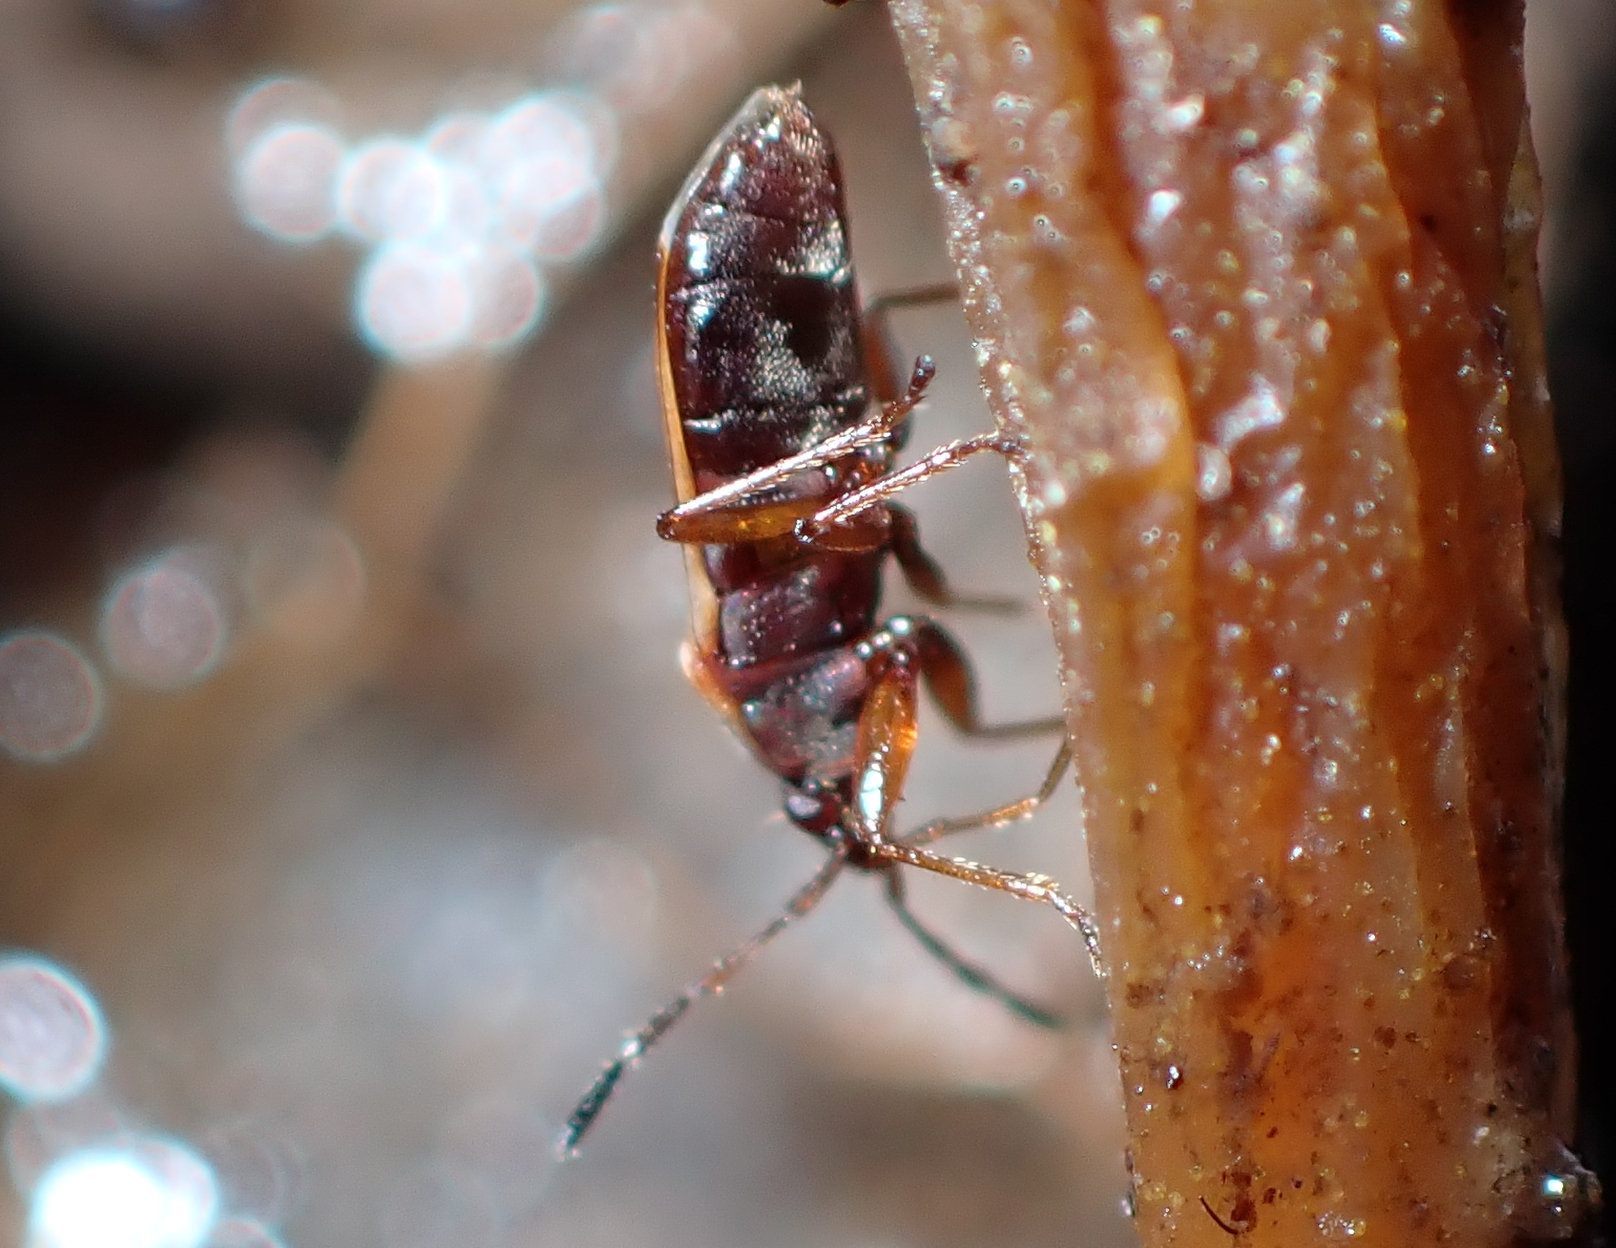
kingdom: Animalia
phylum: Arthropoda
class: Insecta
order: Hemiptera
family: Rhyparochromidae
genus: Targarema
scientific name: Targarema stali
